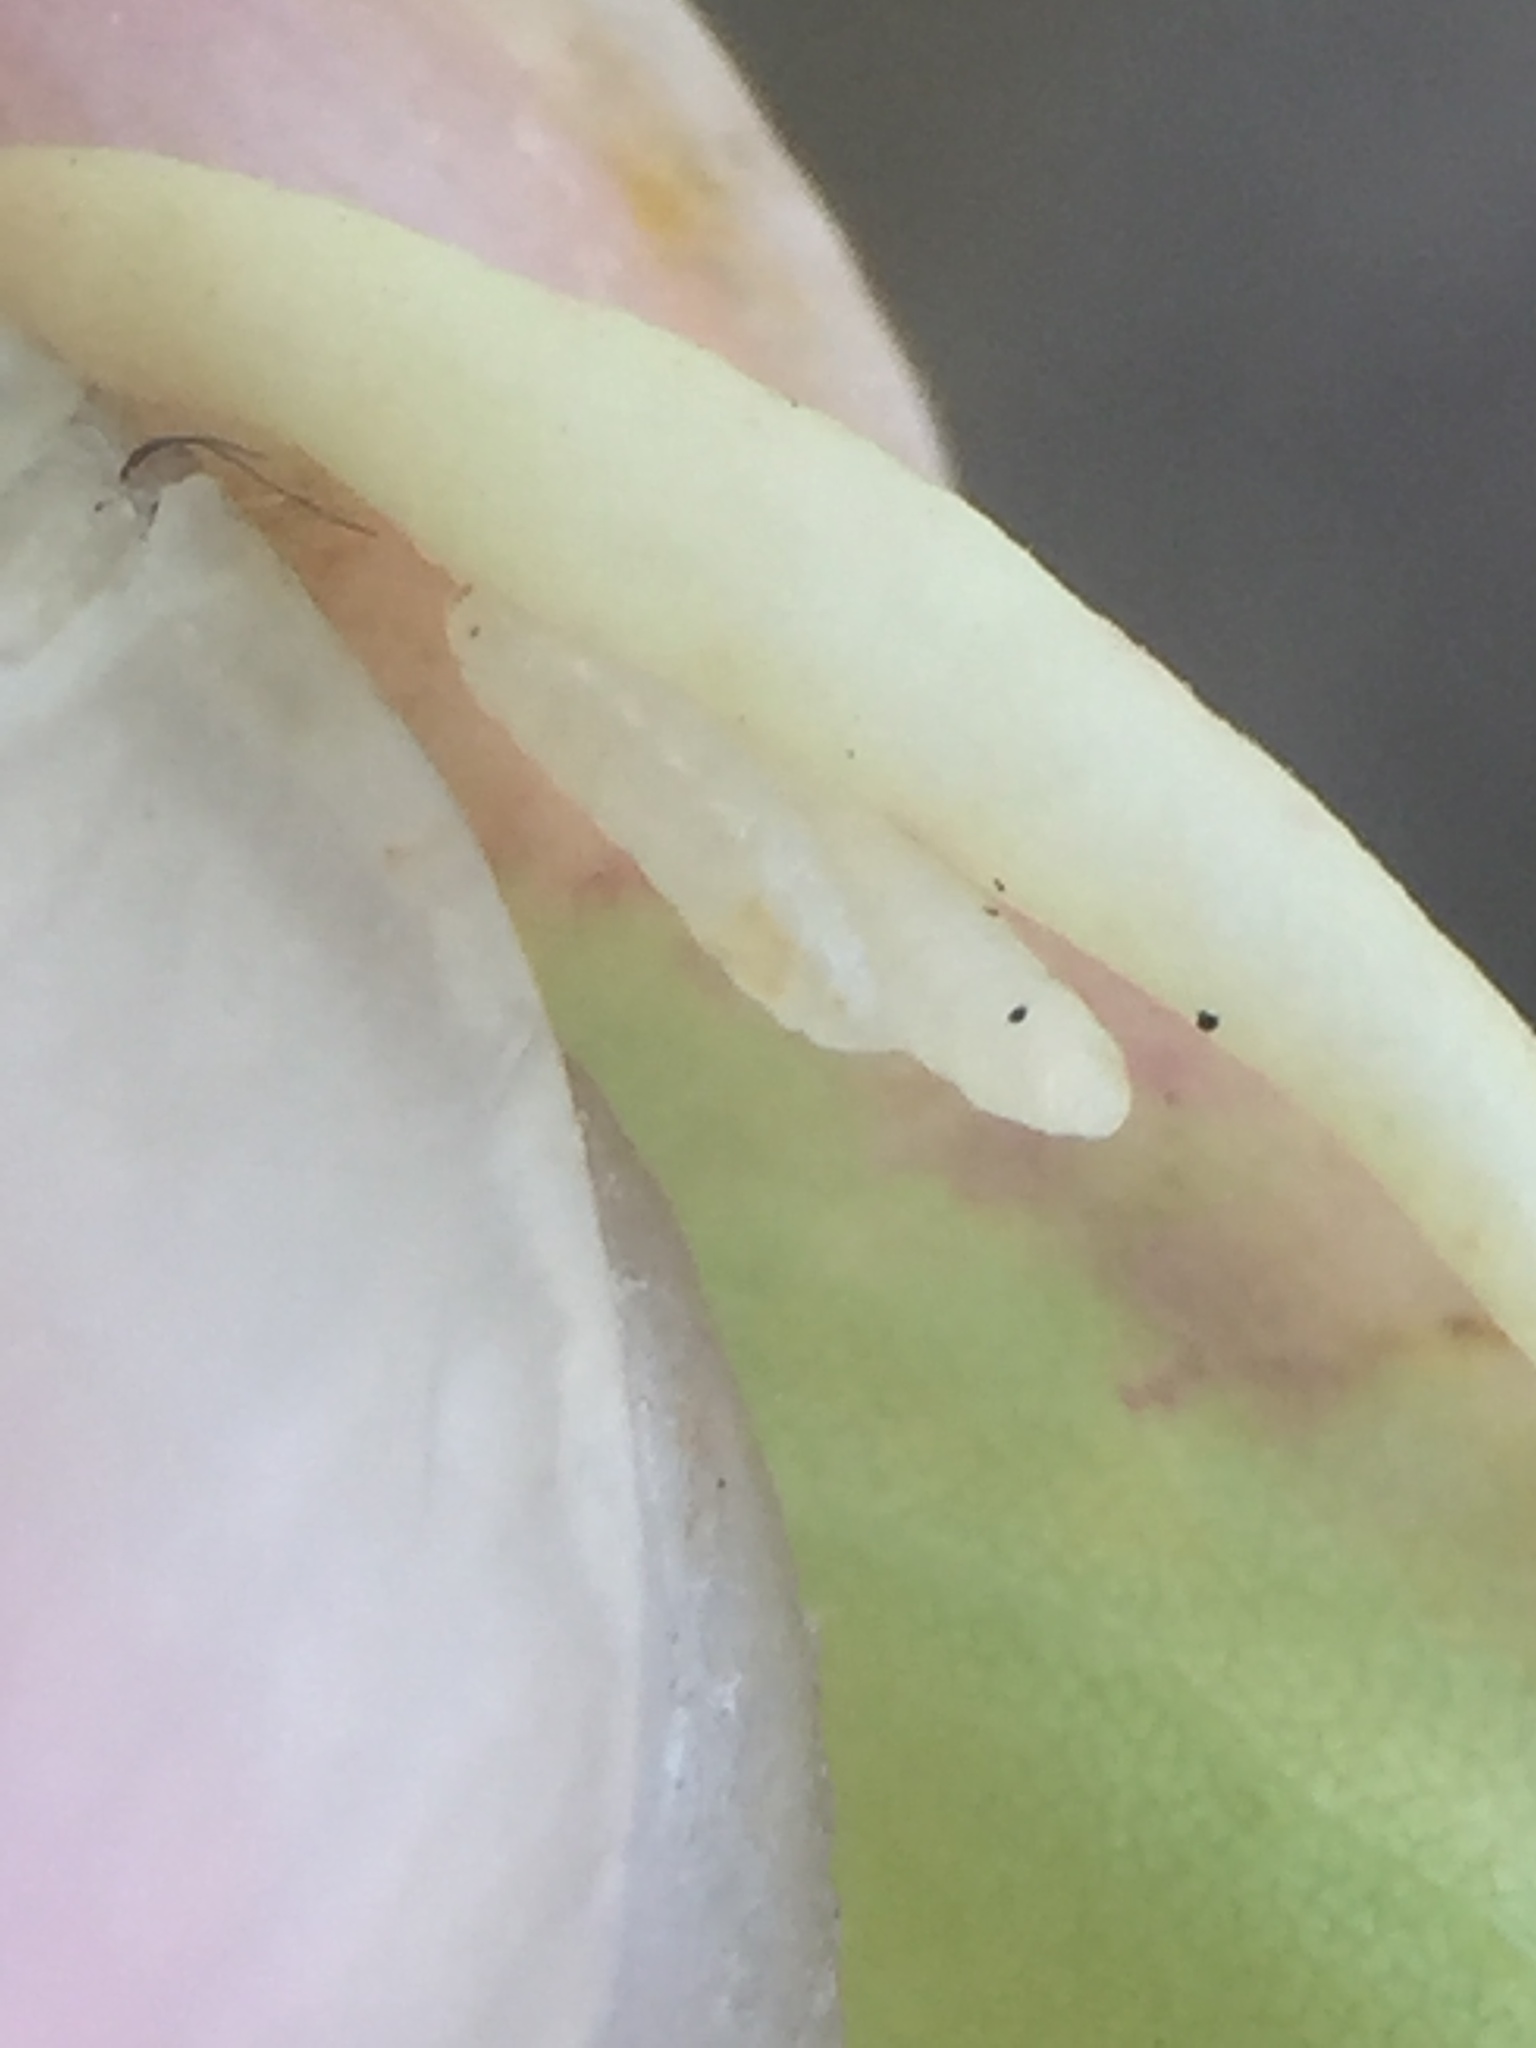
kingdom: Animalia
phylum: Arthropoda
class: Insecta
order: Diptera
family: Cecidomyiidae
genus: Obolodiplosis
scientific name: Obolodiplosis robiniae
